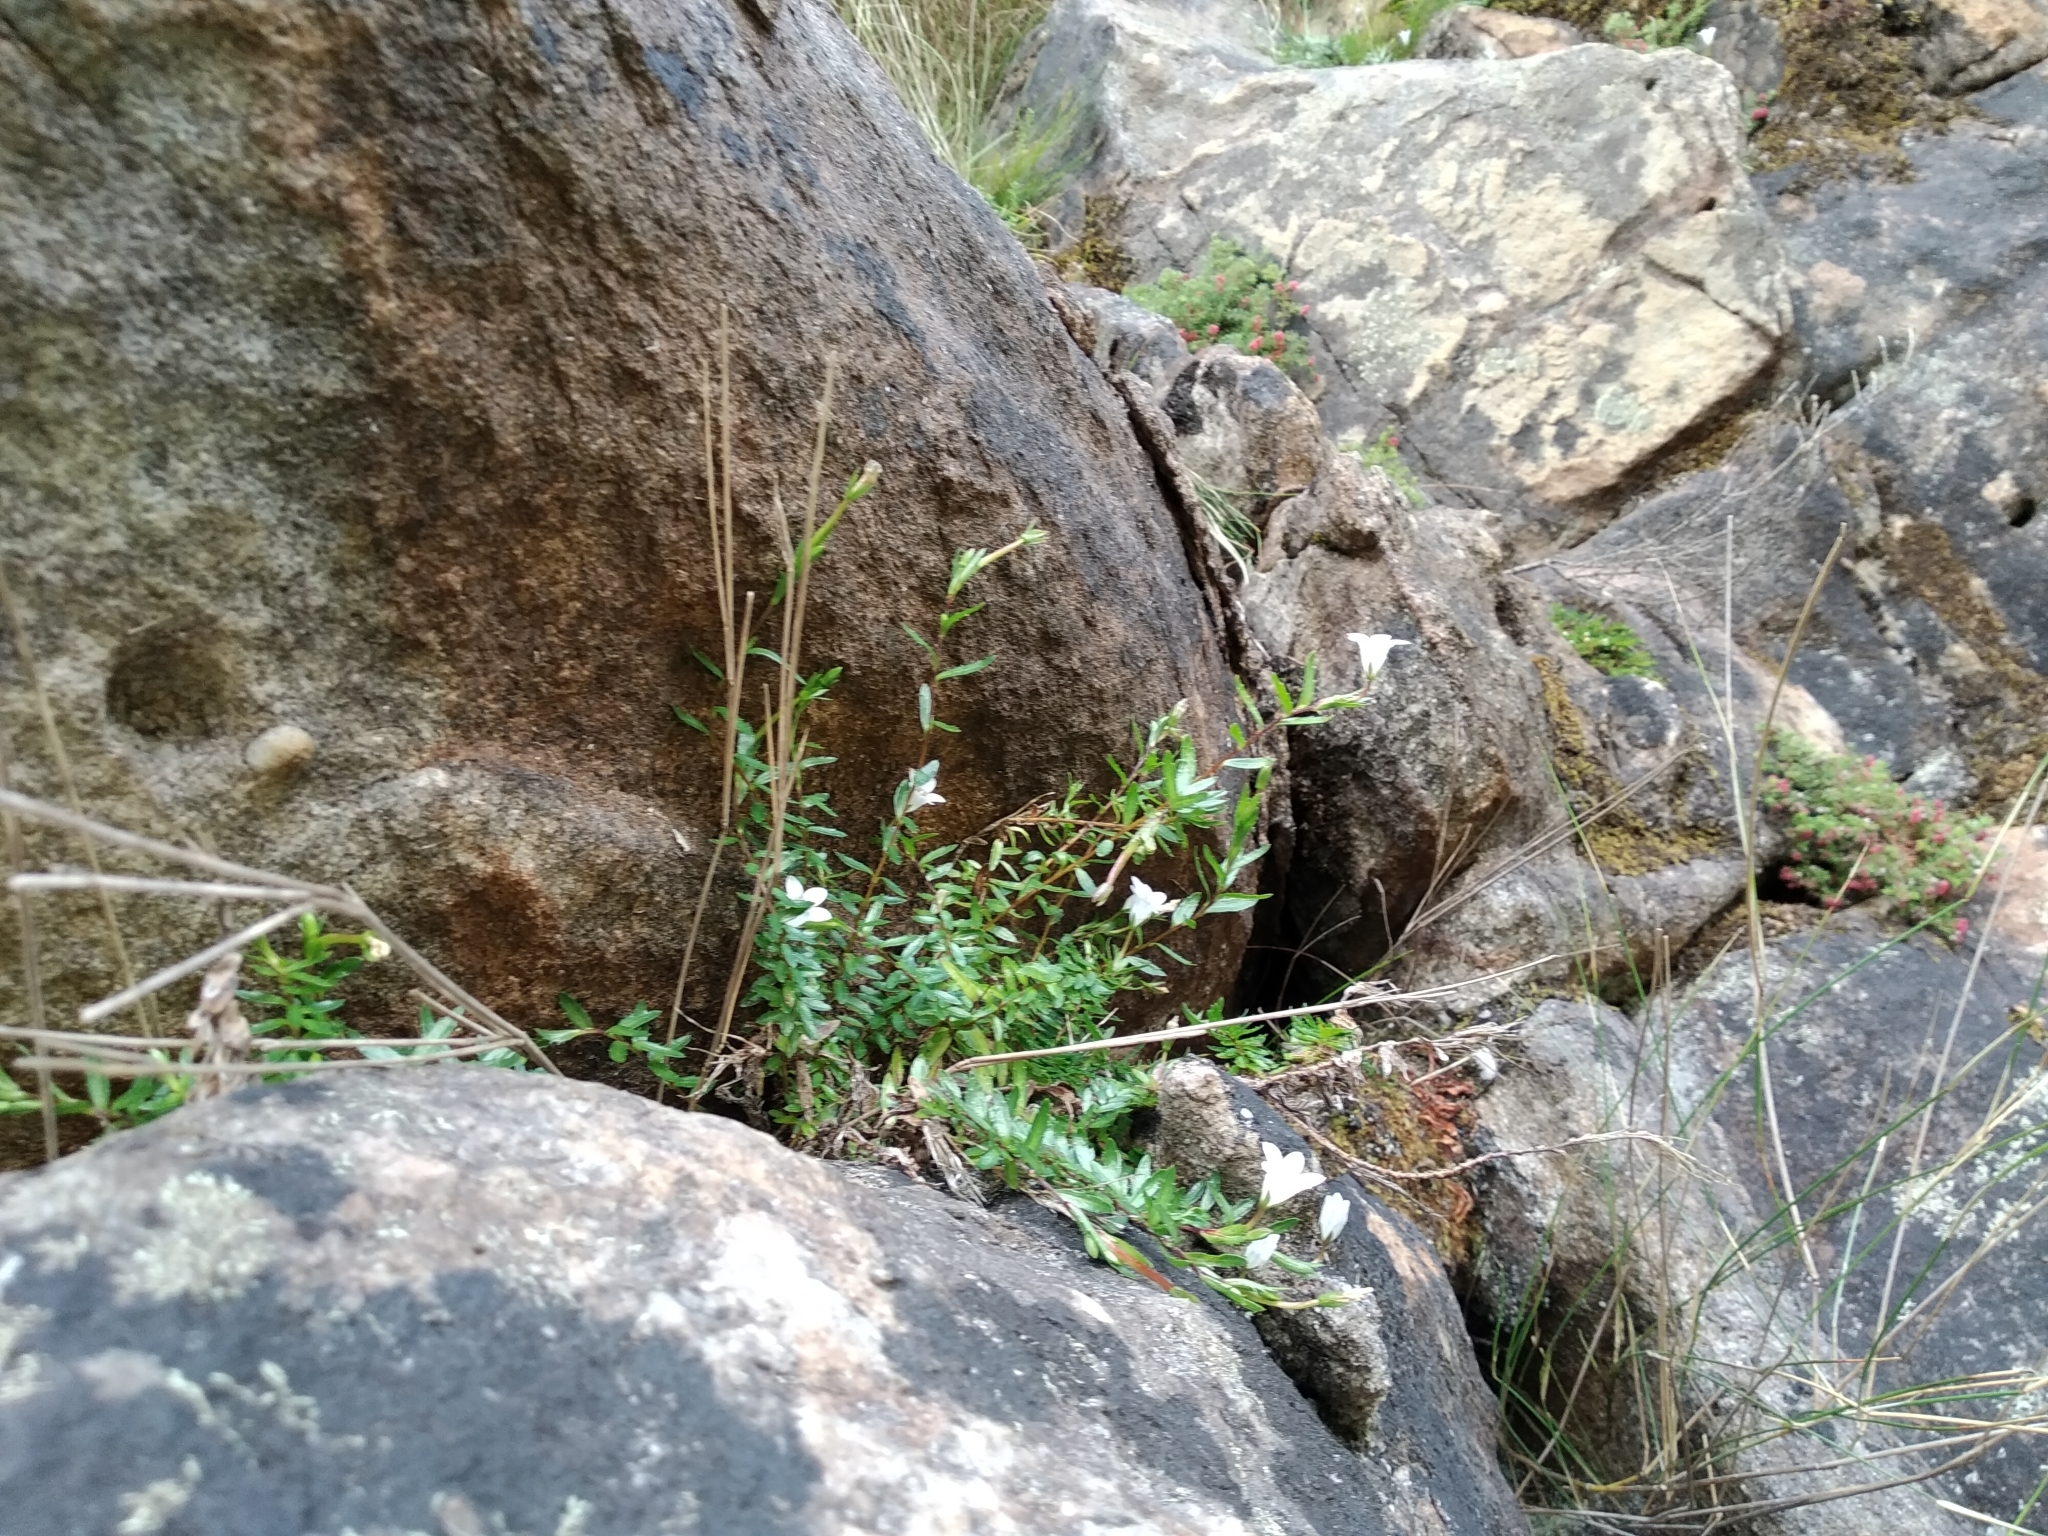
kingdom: Plantae
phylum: Tracheophyta
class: Magnoliopsida
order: Asterales
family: Campanulaceae
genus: Prismatocarpus
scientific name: Prismatocarpus nitidus
